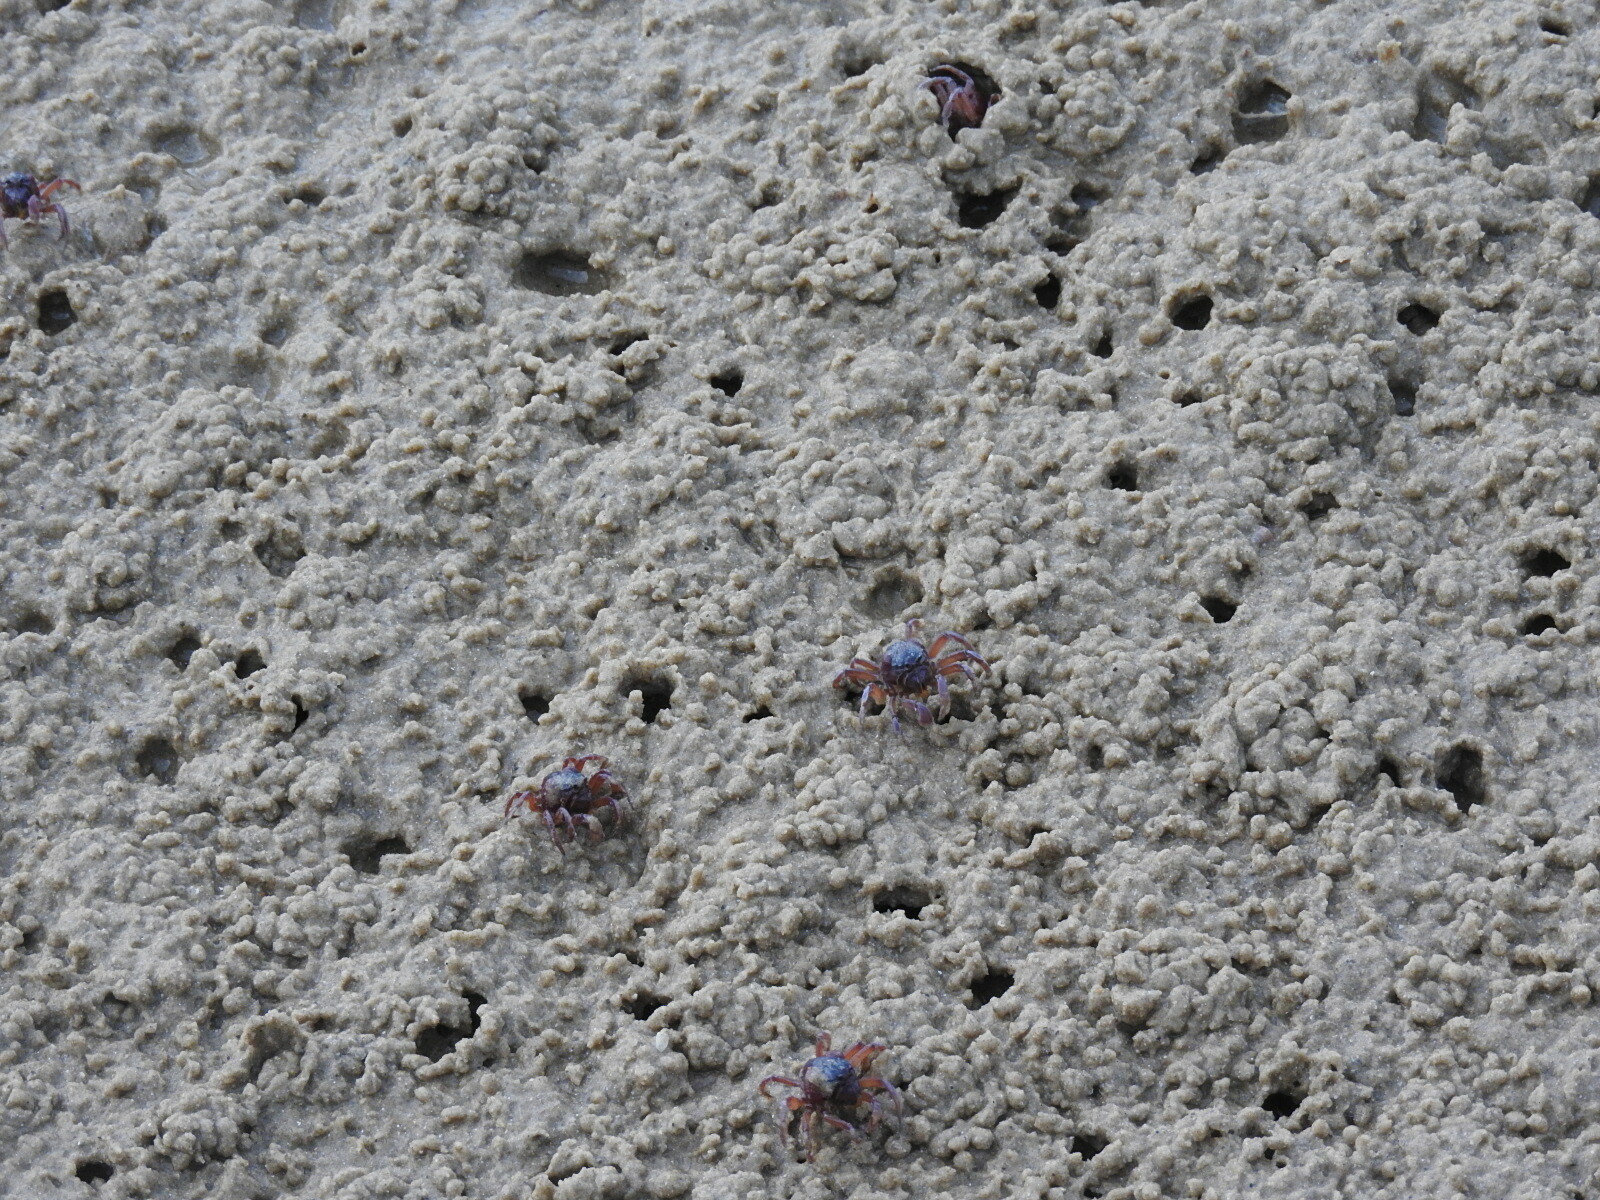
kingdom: Animalia
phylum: Arthropoda
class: Malacostraca
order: Decapoda
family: Mictyridae
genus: Mictyris
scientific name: Mictyris platycheles
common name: Dark blue soldier crab
